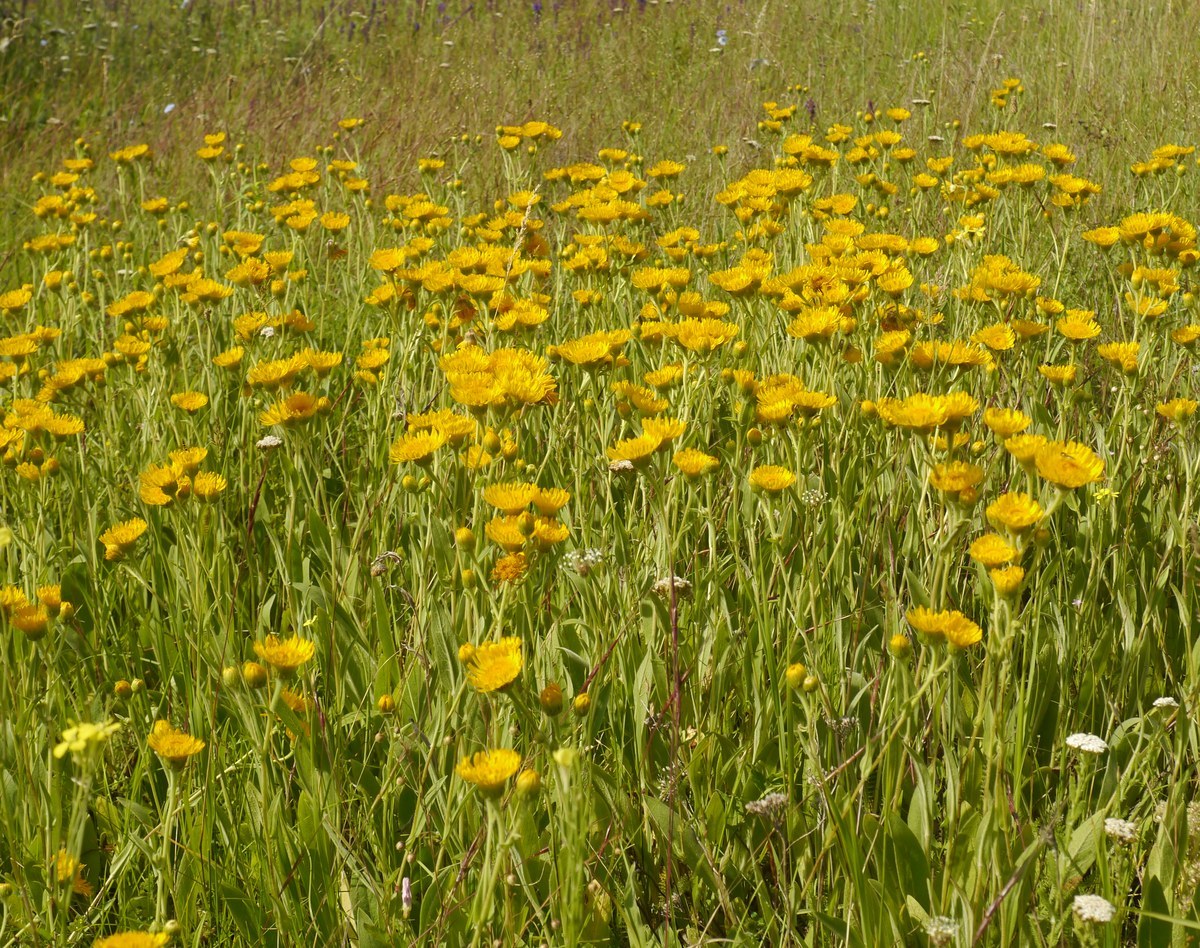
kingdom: Plantae
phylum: Tracheophyta
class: Magnoliopsida
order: Asterales
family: Asteraceae
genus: Pentanema
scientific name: Pentanema oculus-christi
